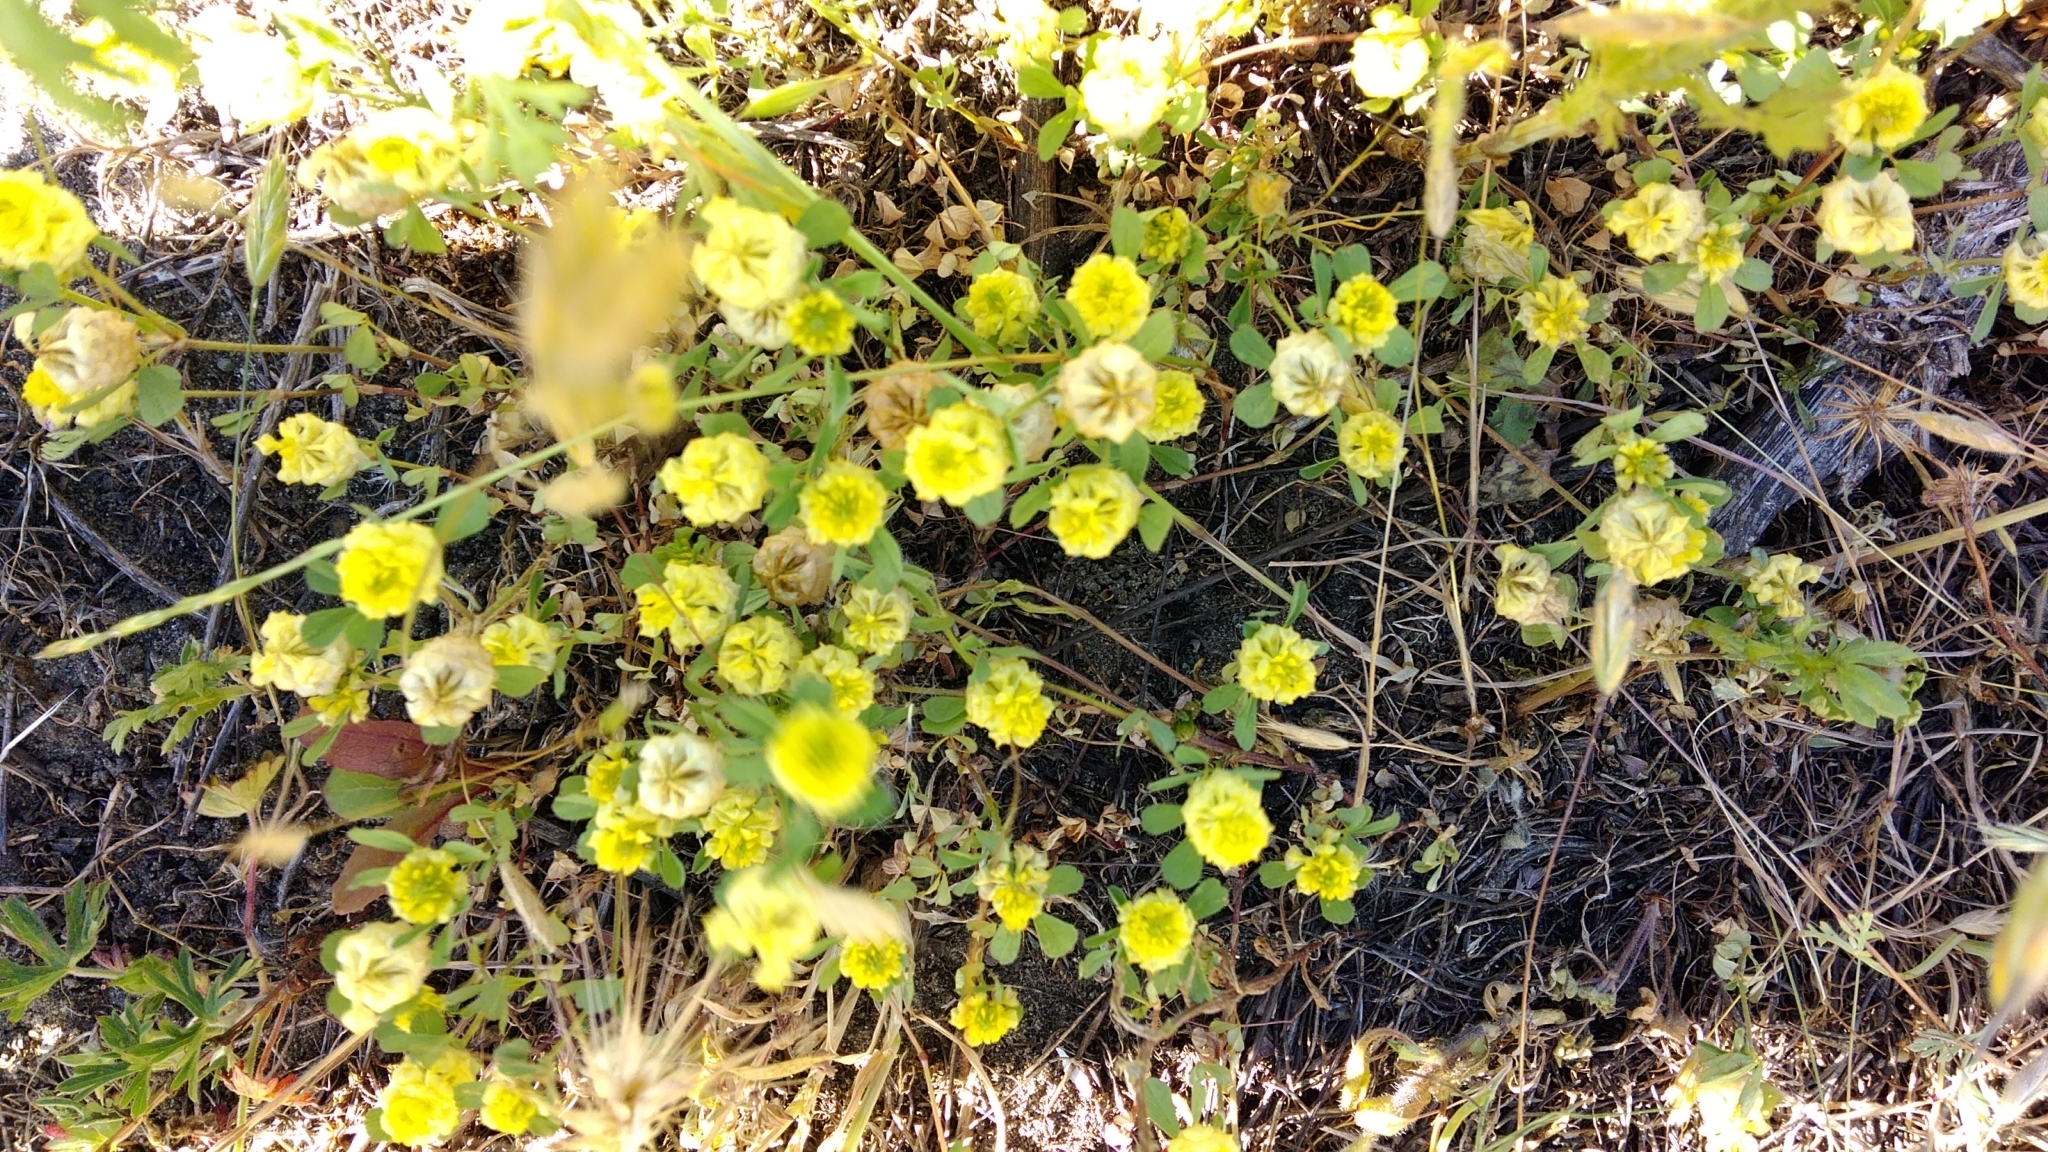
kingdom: Plantae
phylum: Tracheophyta
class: Magnoliopsida
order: Fabales
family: Fabaceae
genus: Trifolium
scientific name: Trifolium campestre
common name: Field clover
